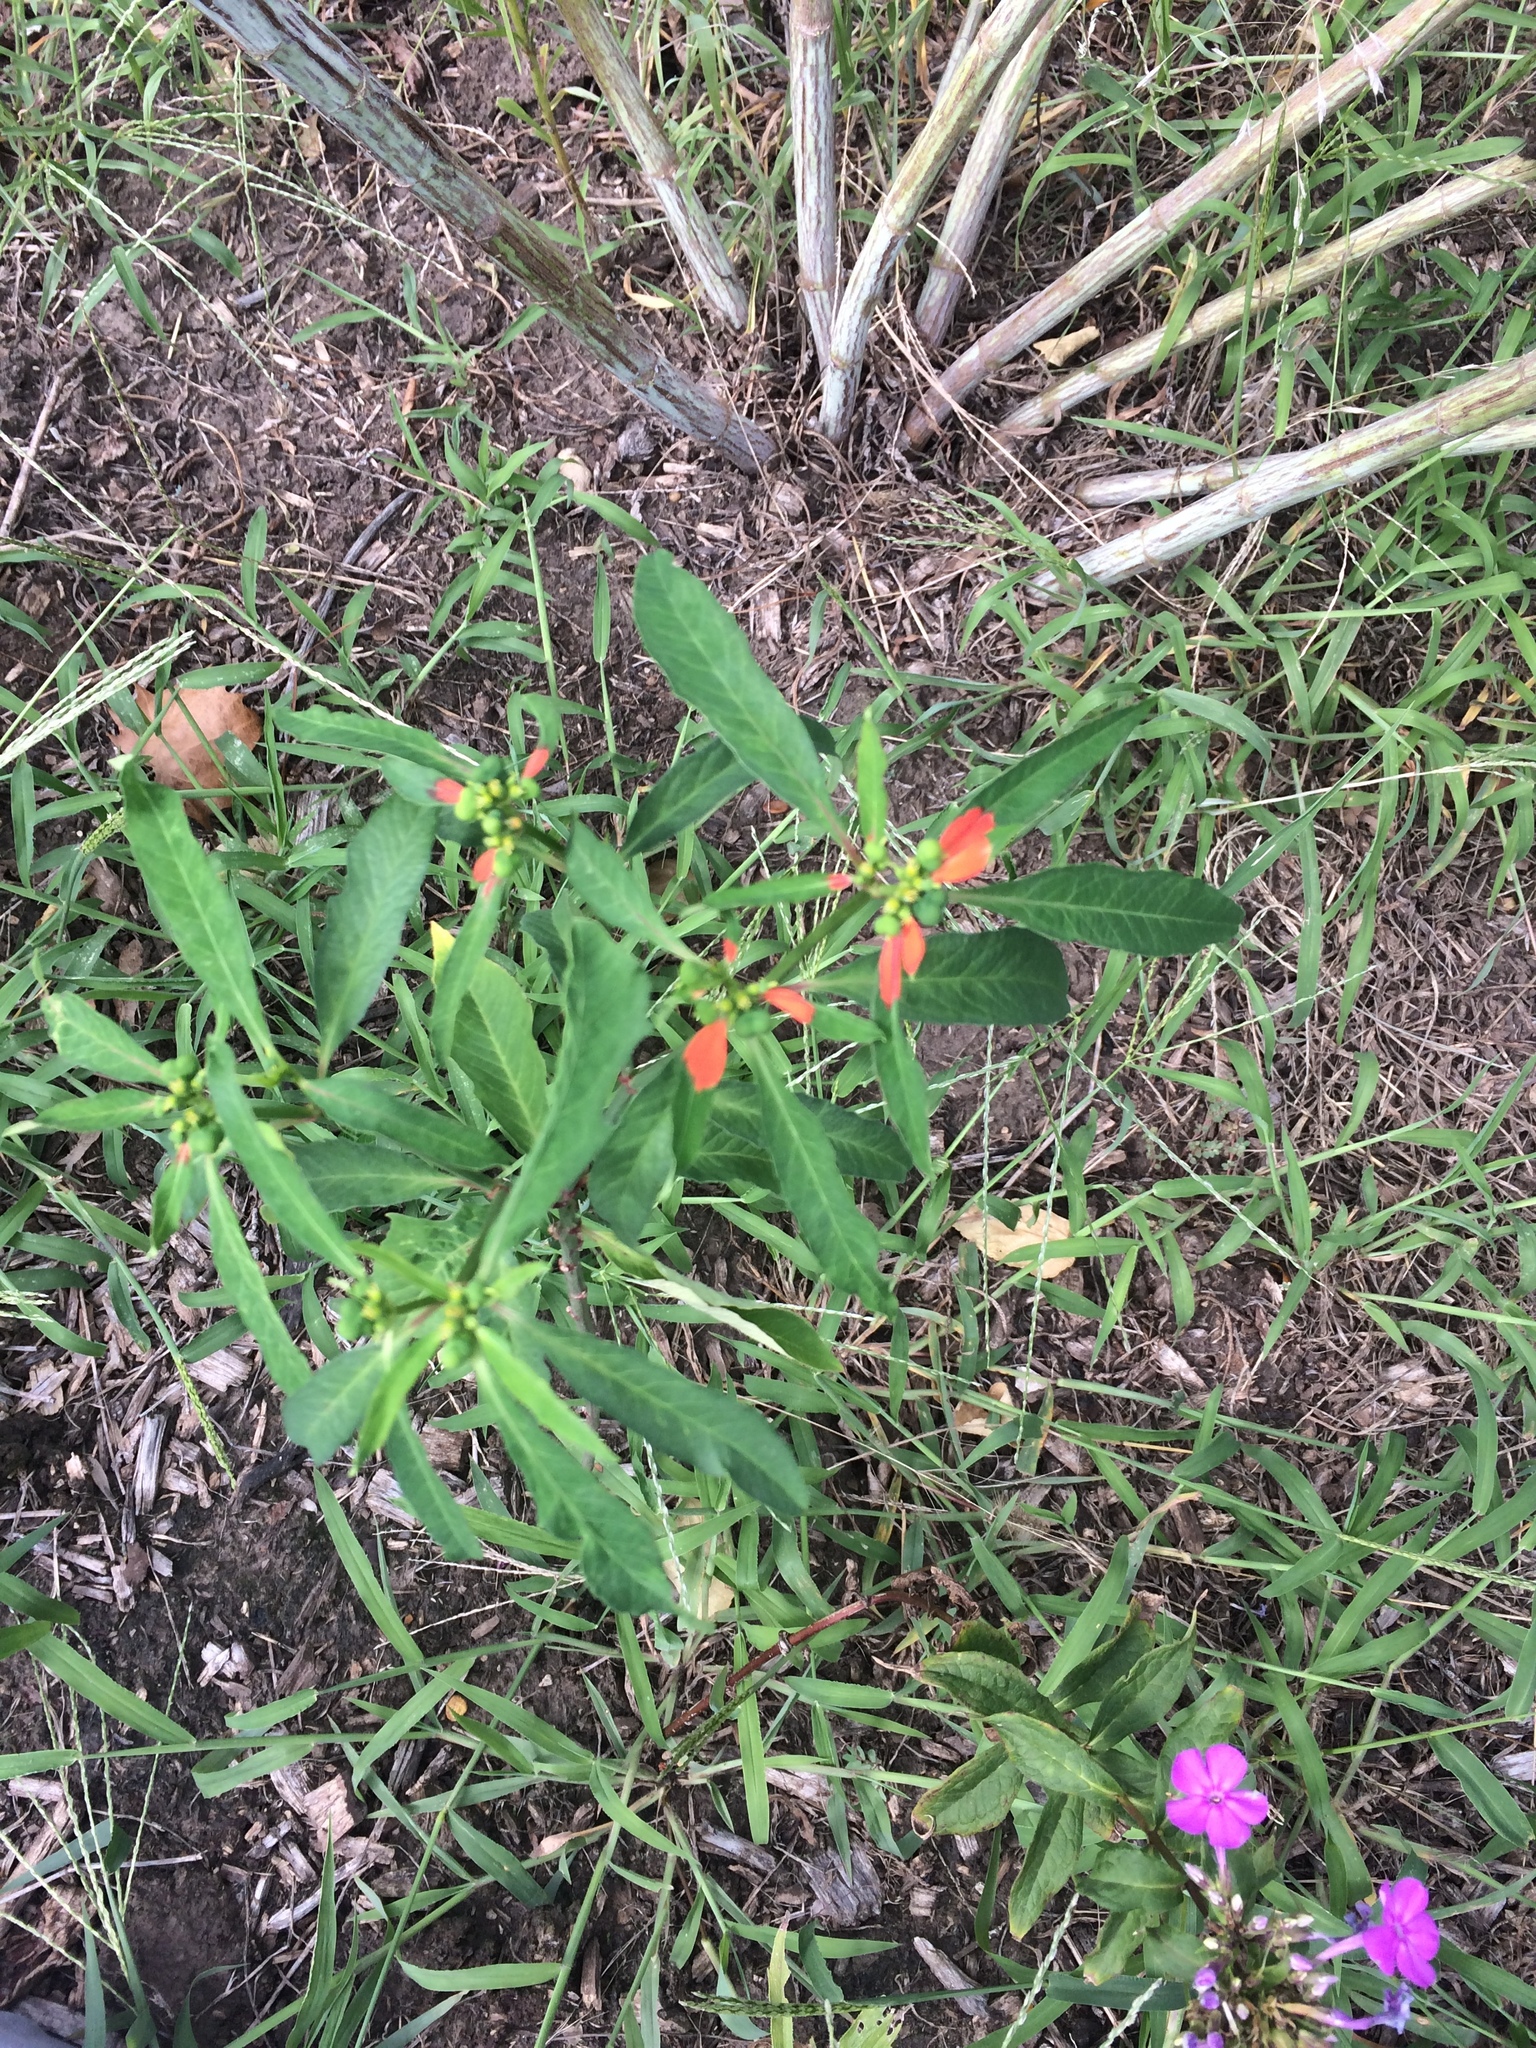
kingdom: Plantae
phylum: Tracheophyta
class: Magnoliopsida
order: Malpighiales
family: Euphorbiaceae
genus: Euphorbia
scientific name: Euphorbia heterophylla
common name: Mexican fireplant
